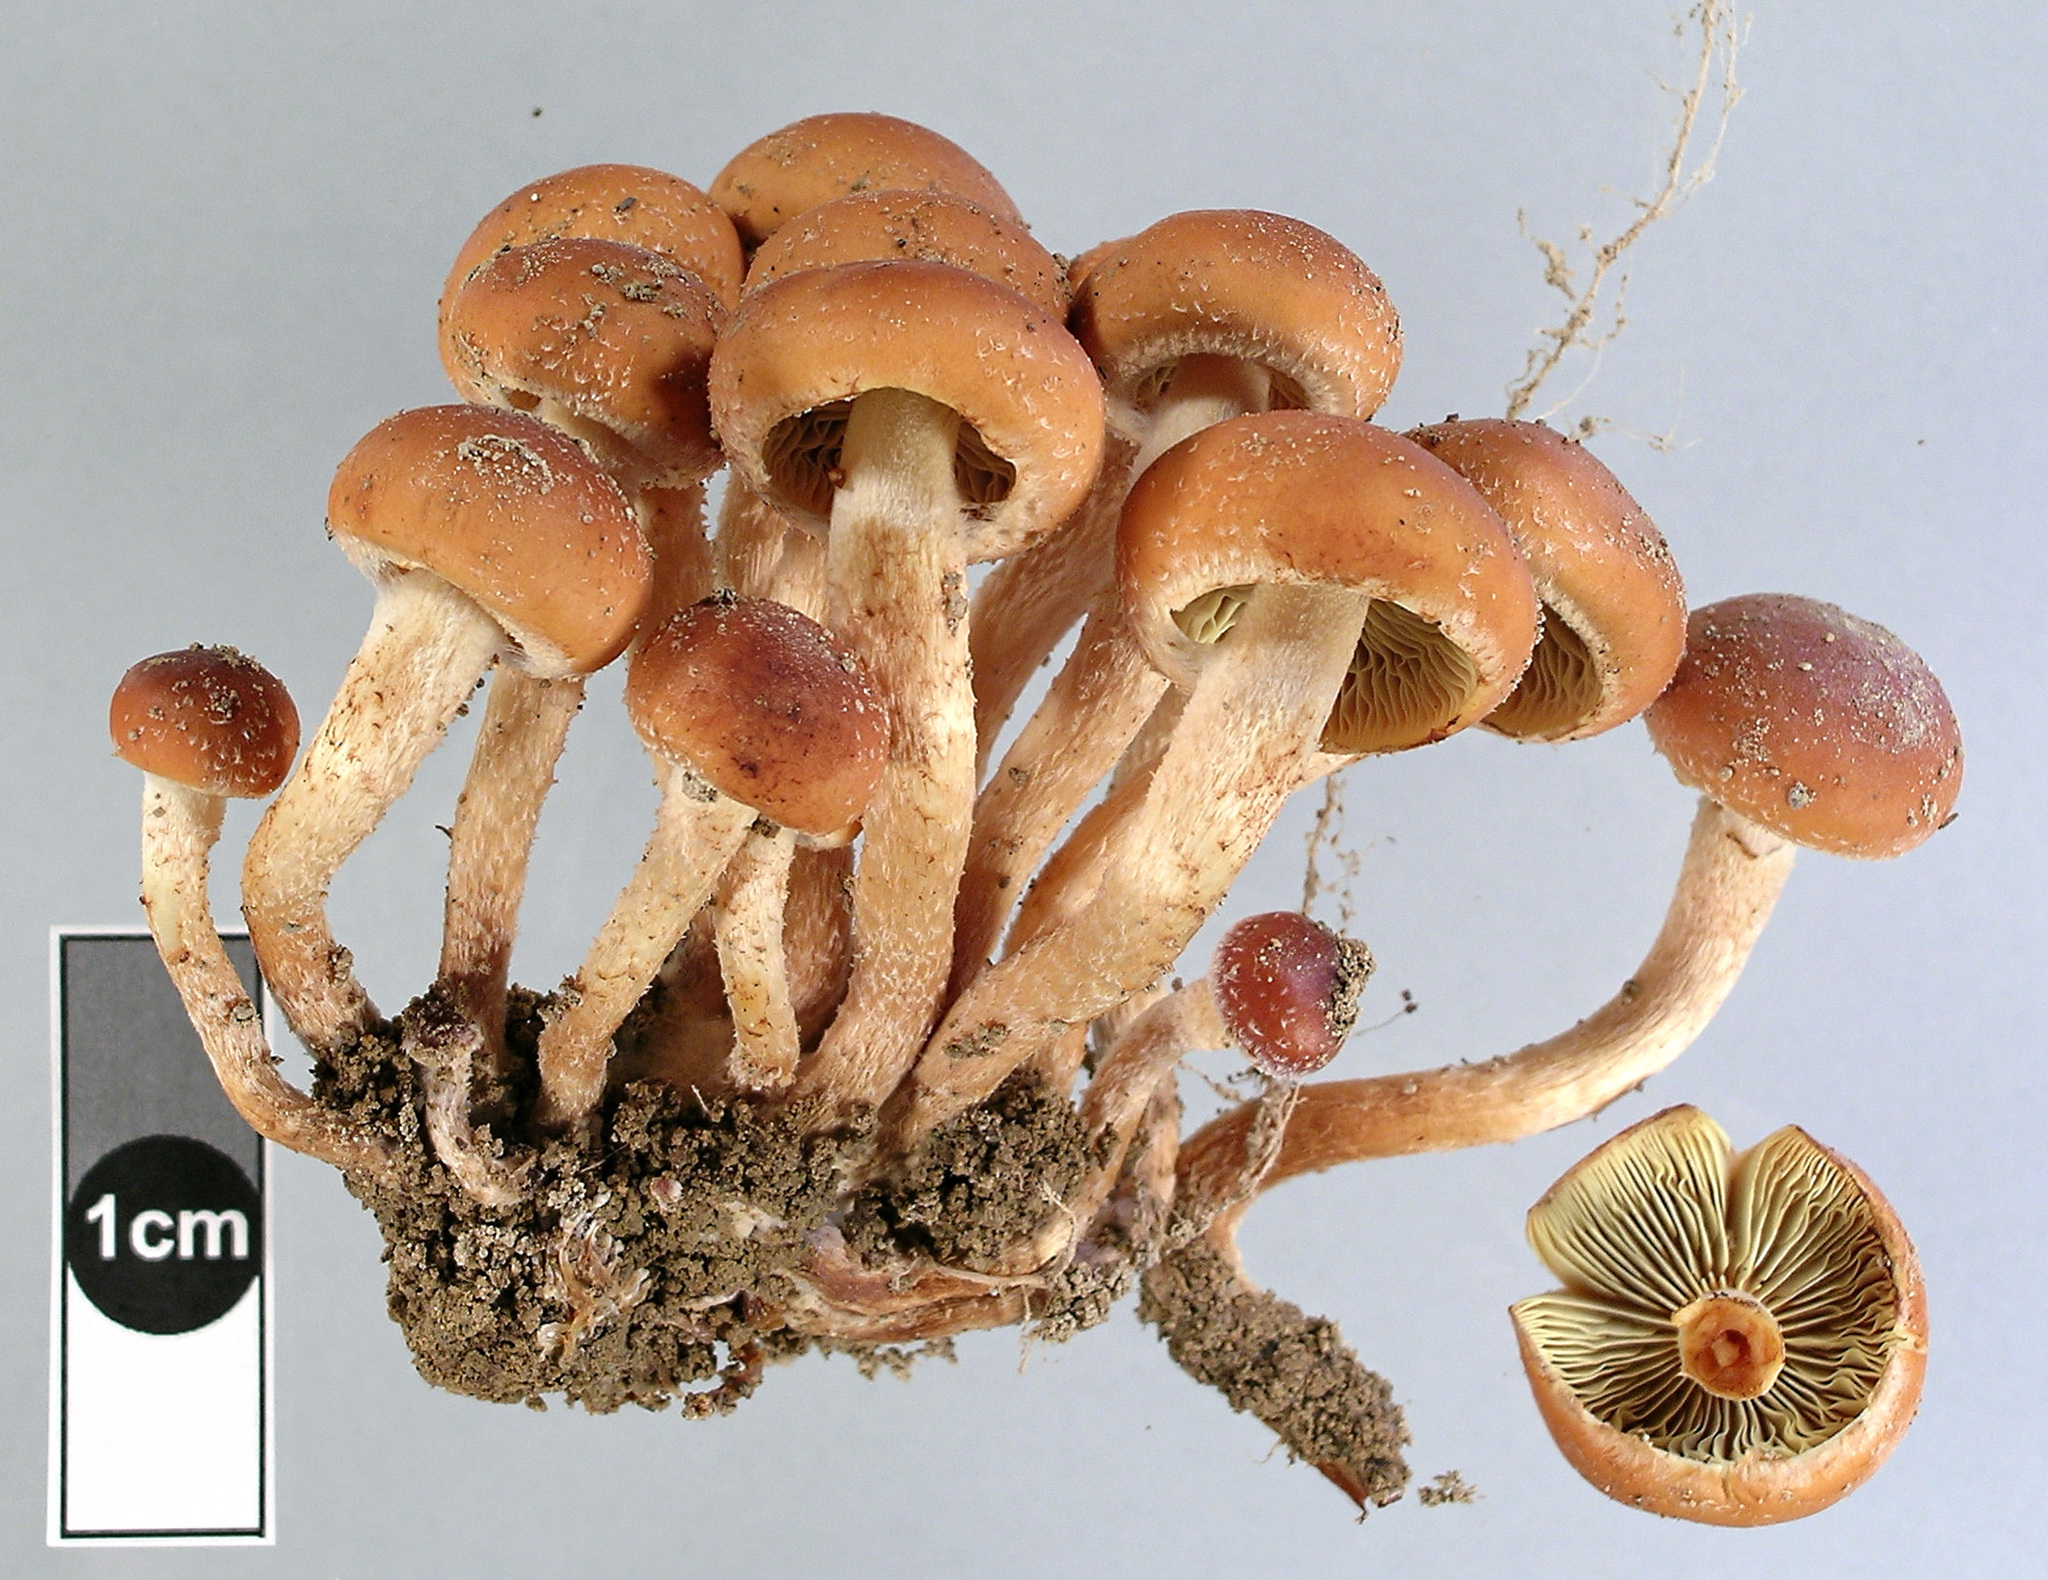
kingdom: Fungi
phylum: Basidiomycota
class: Agaricomycetes
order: Agaricales
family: Strophariaceae
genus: Hypholoma
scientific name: Hypholoma australianum
